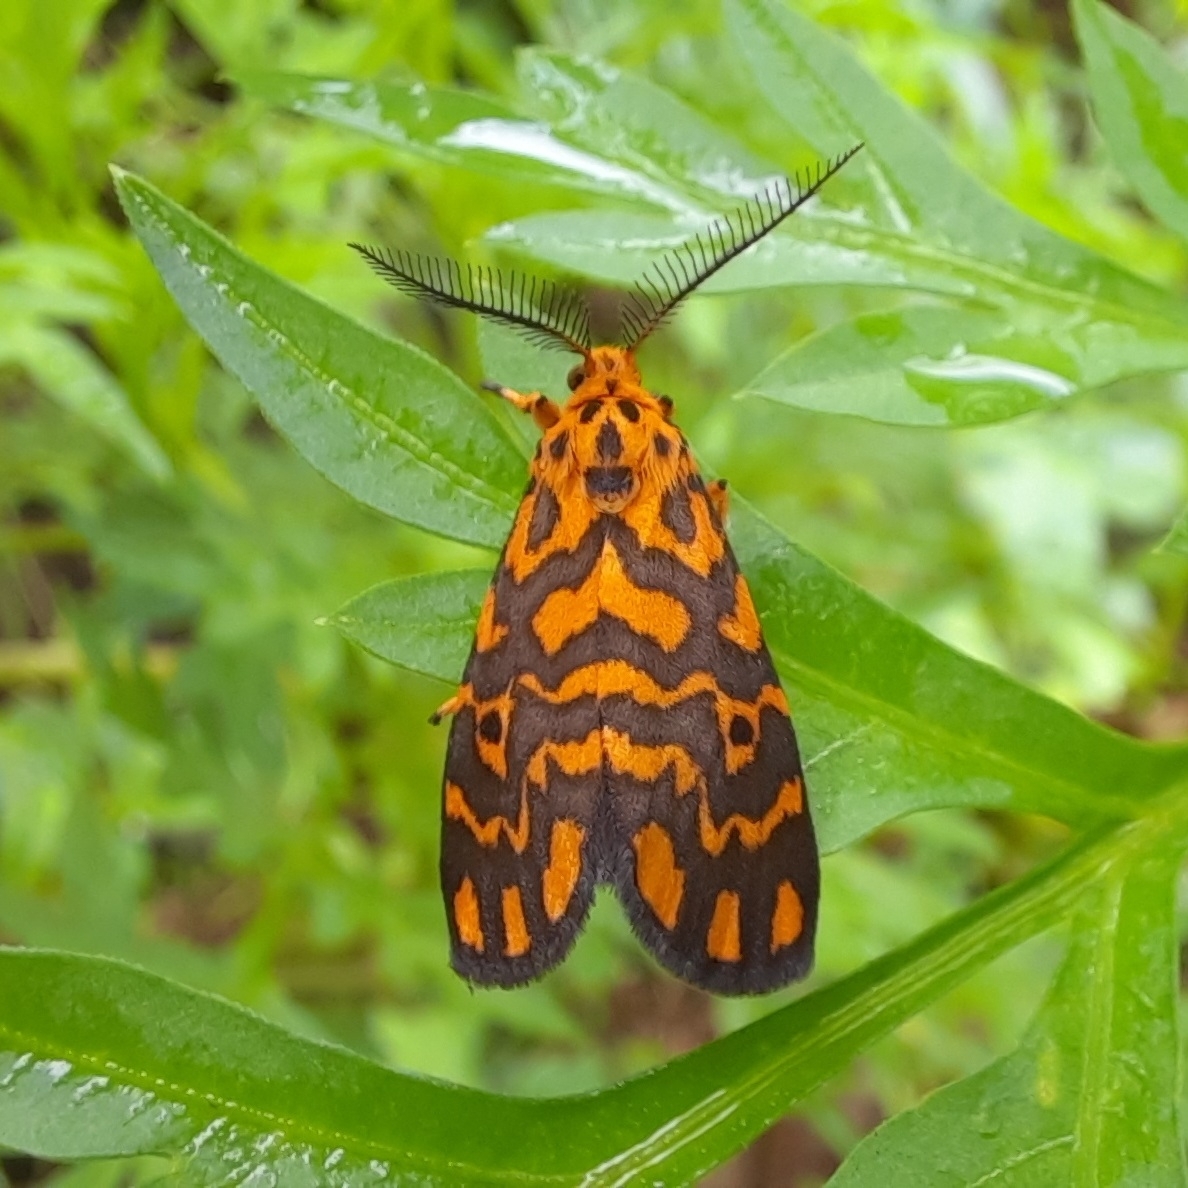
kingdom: Animalia
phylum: Arthropoda
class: Insecta
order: Lepidoptera
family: Erebidae
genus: Nepita
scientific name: Nepita conferta
